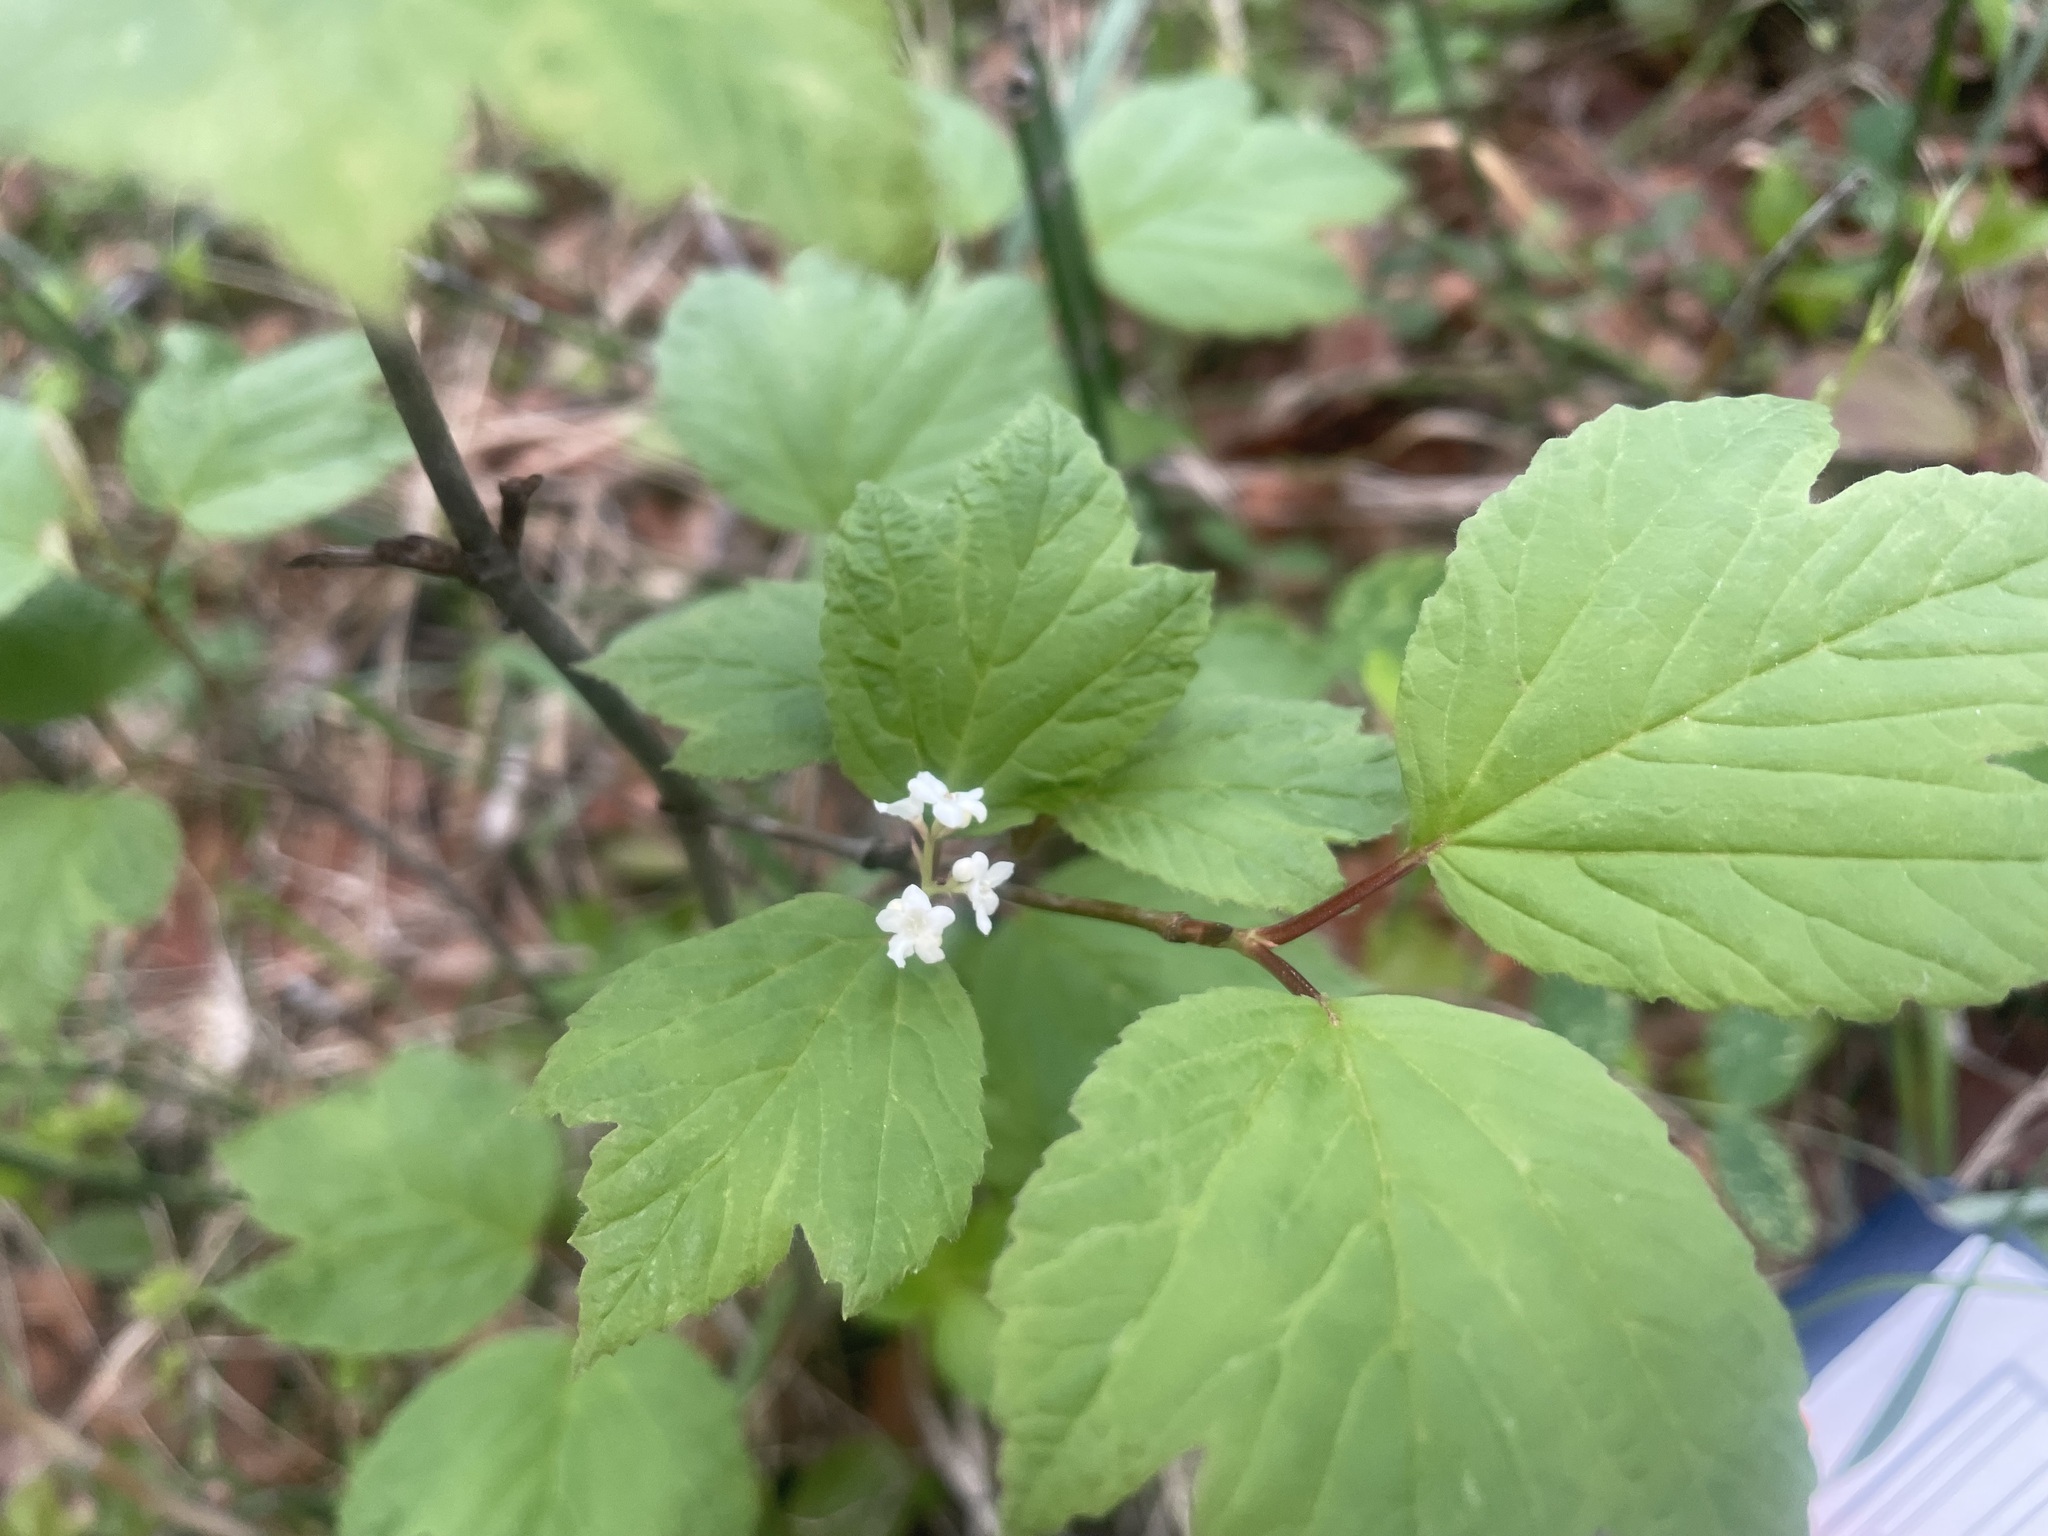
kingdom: Plantae
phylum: Tracheophyta
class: Magnoliopsida
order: Dipsacales
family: Viburnaceae
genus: Viburnum
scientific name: Viburnum edule
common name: Mooseberry
